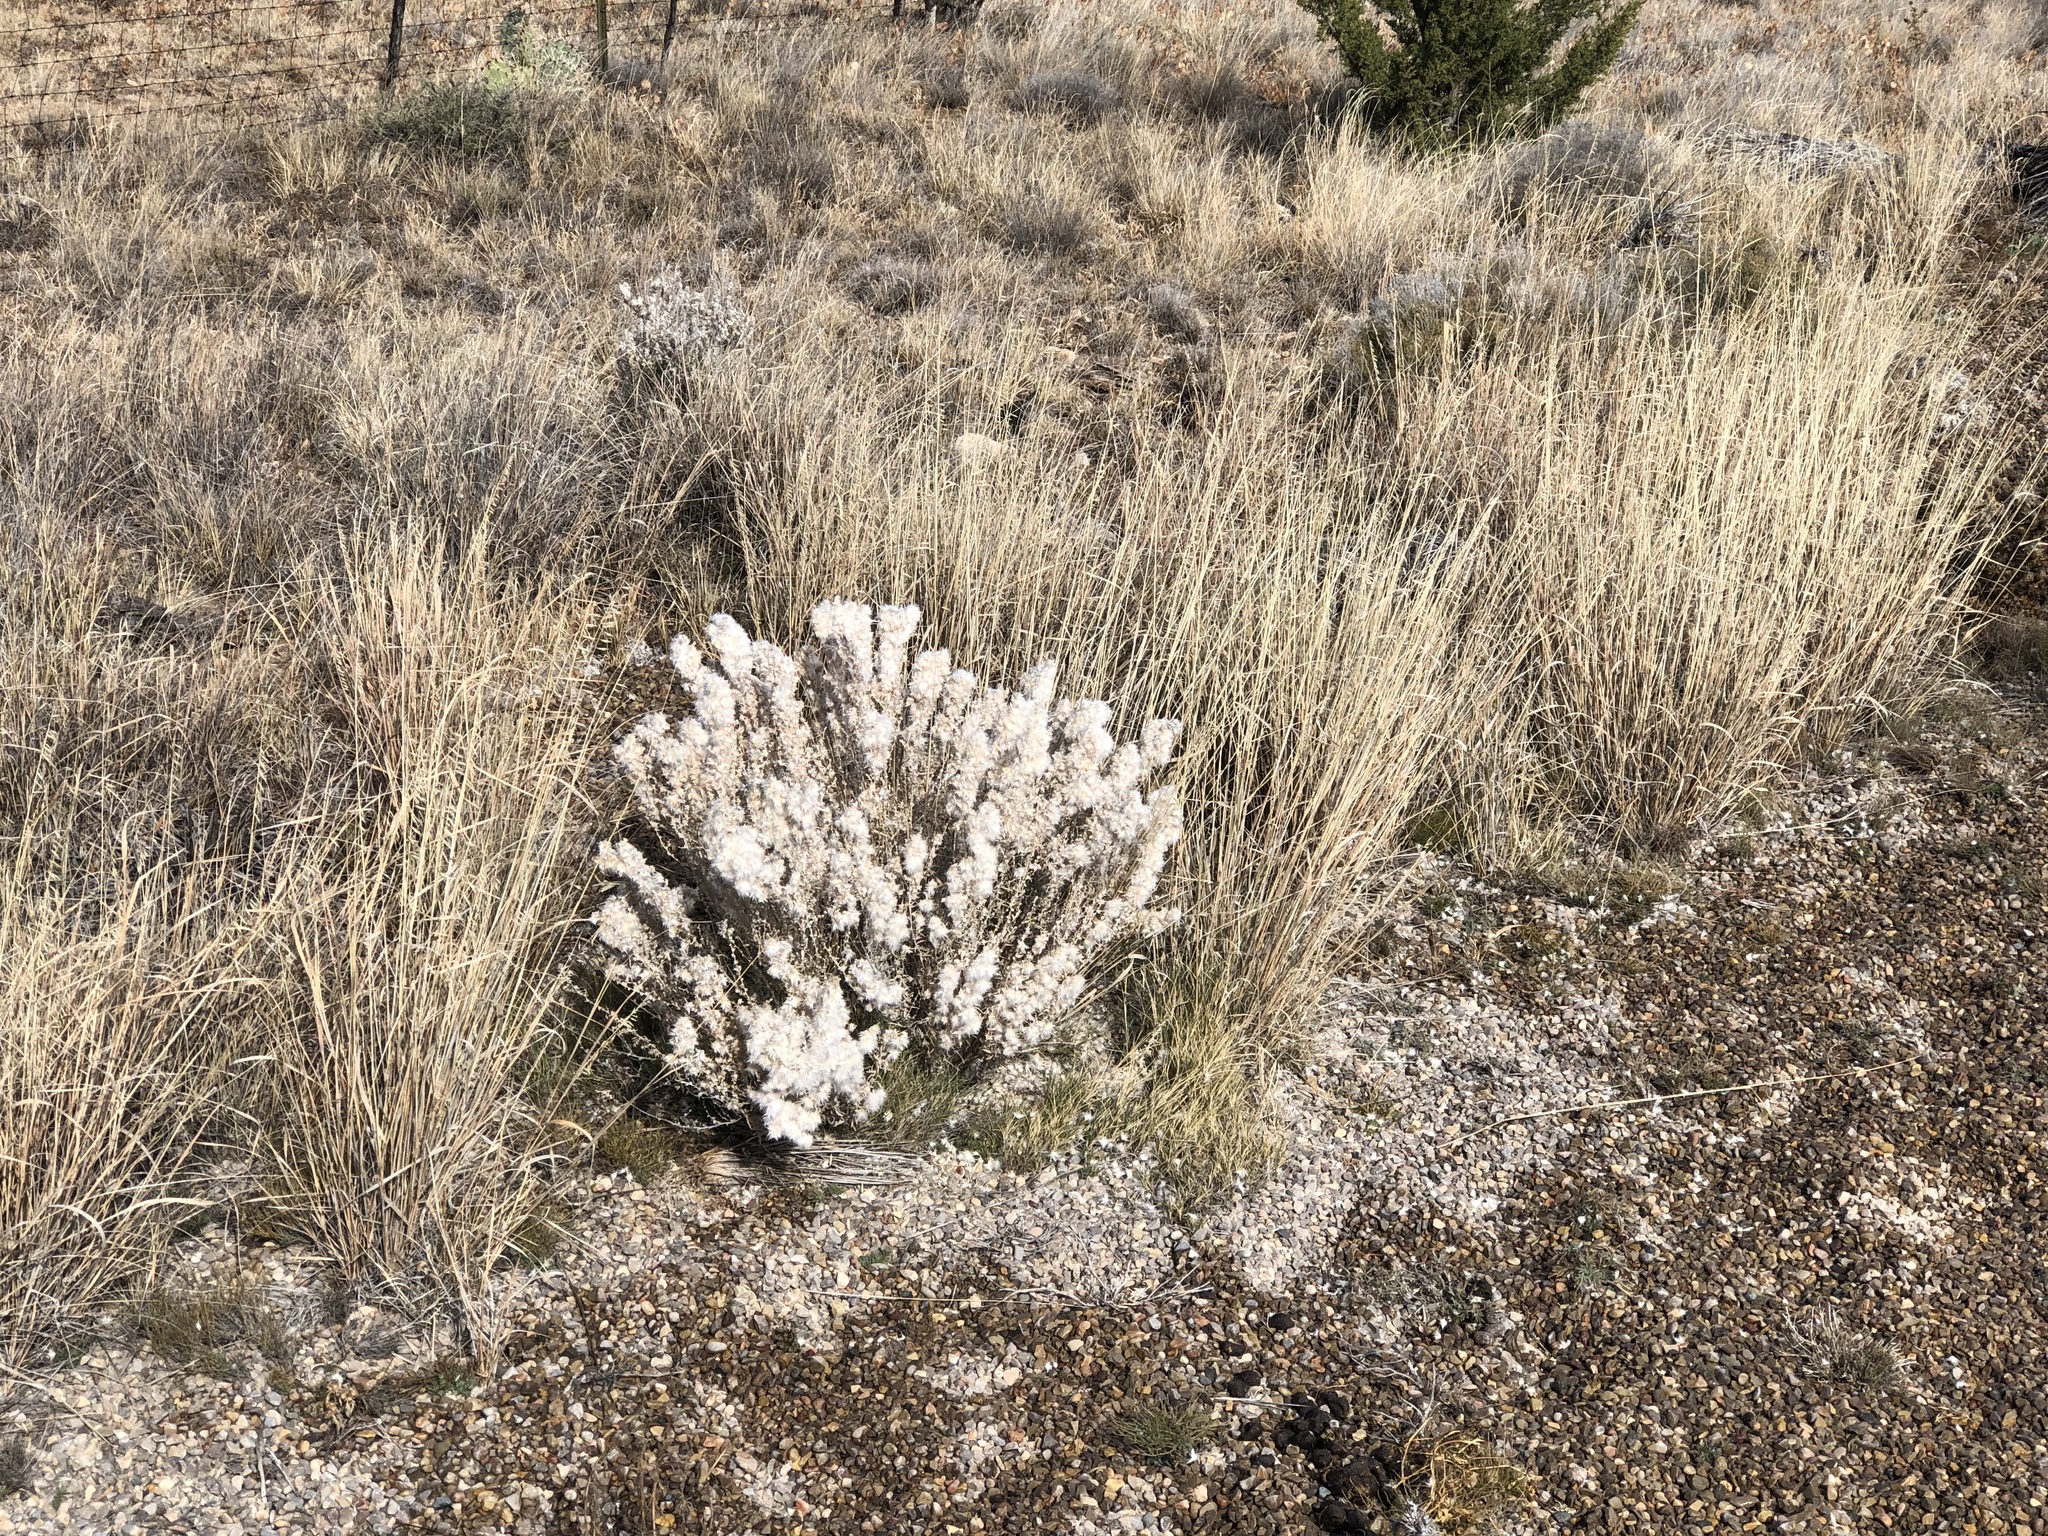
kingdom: Plantae
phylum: Tracheophyta
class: Magnoliopsida
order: Caryophyllales
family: Amaranthaceae
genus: Krascheninnikovia
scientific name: Krascheninnikovia lanata
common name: Winterfat
